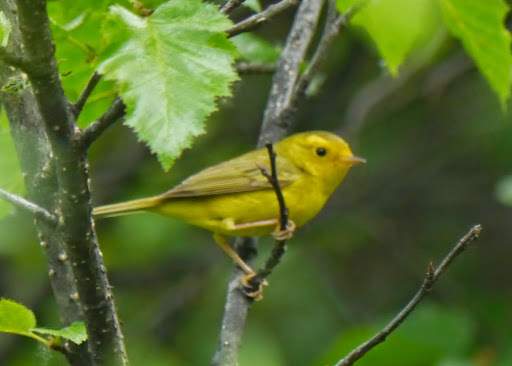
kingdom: Animalia
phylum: Chordata
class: Aves
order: Passeriformes
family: Parulidae
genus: Cardellina
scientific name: Cardellina pusilla
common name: Wilson's warbler
